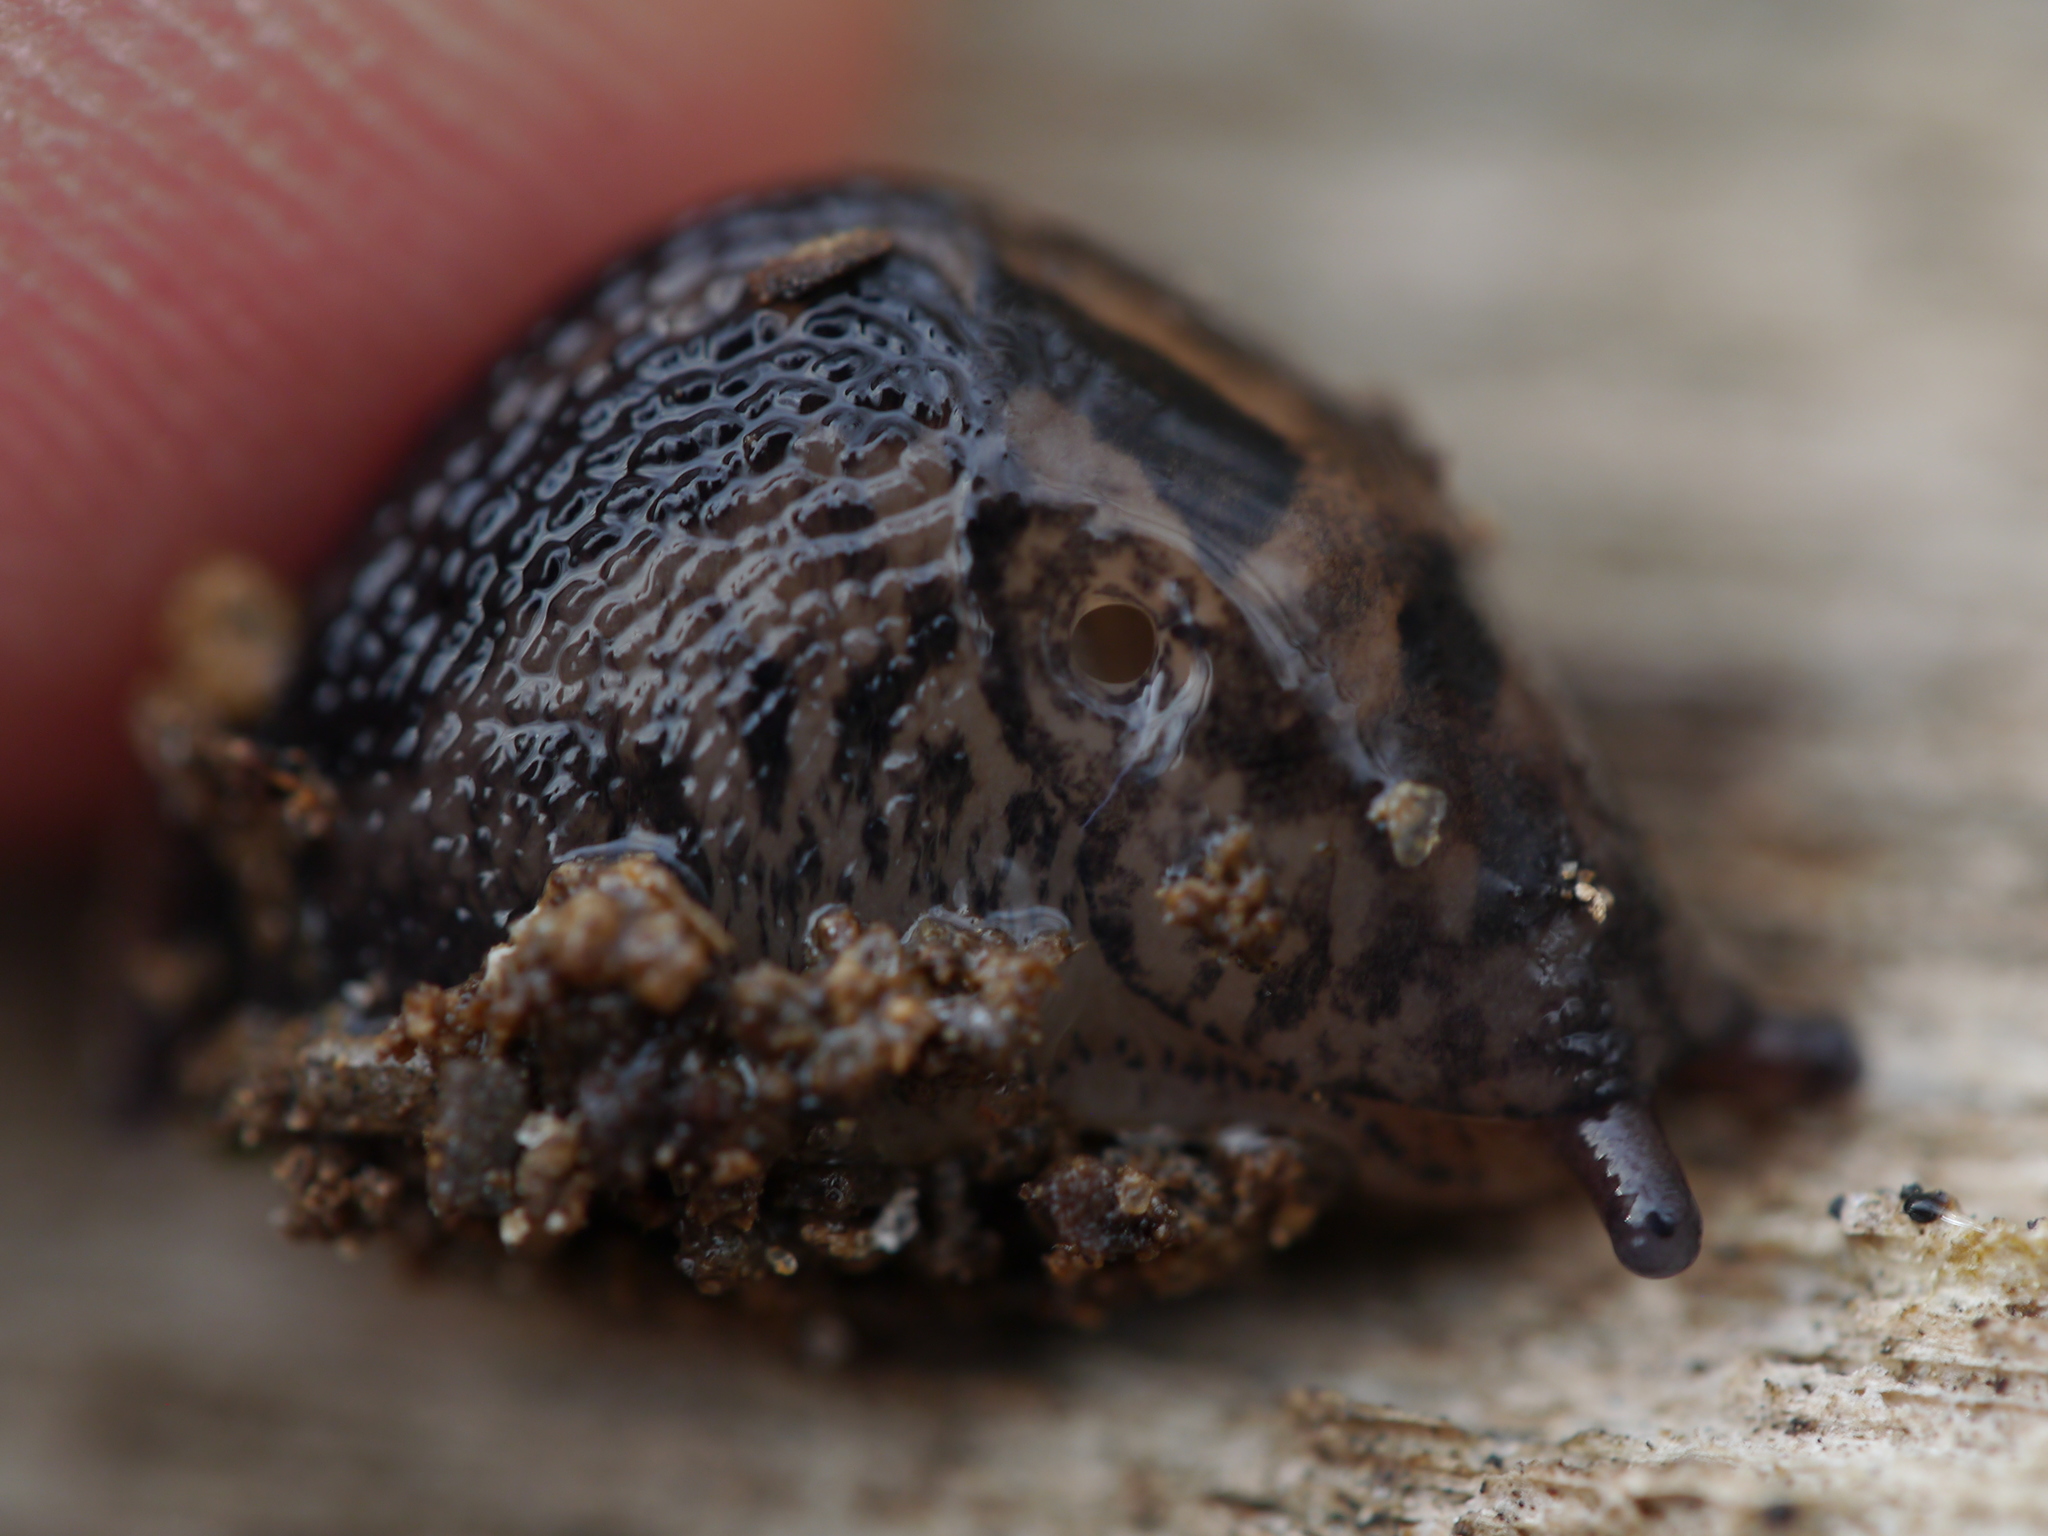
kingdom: Animalia
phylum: Mollusca
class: Gastropoda
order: Stylommatophora
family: Limacidae
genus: Limax
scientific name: Limax maximus
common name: Great grey slug
